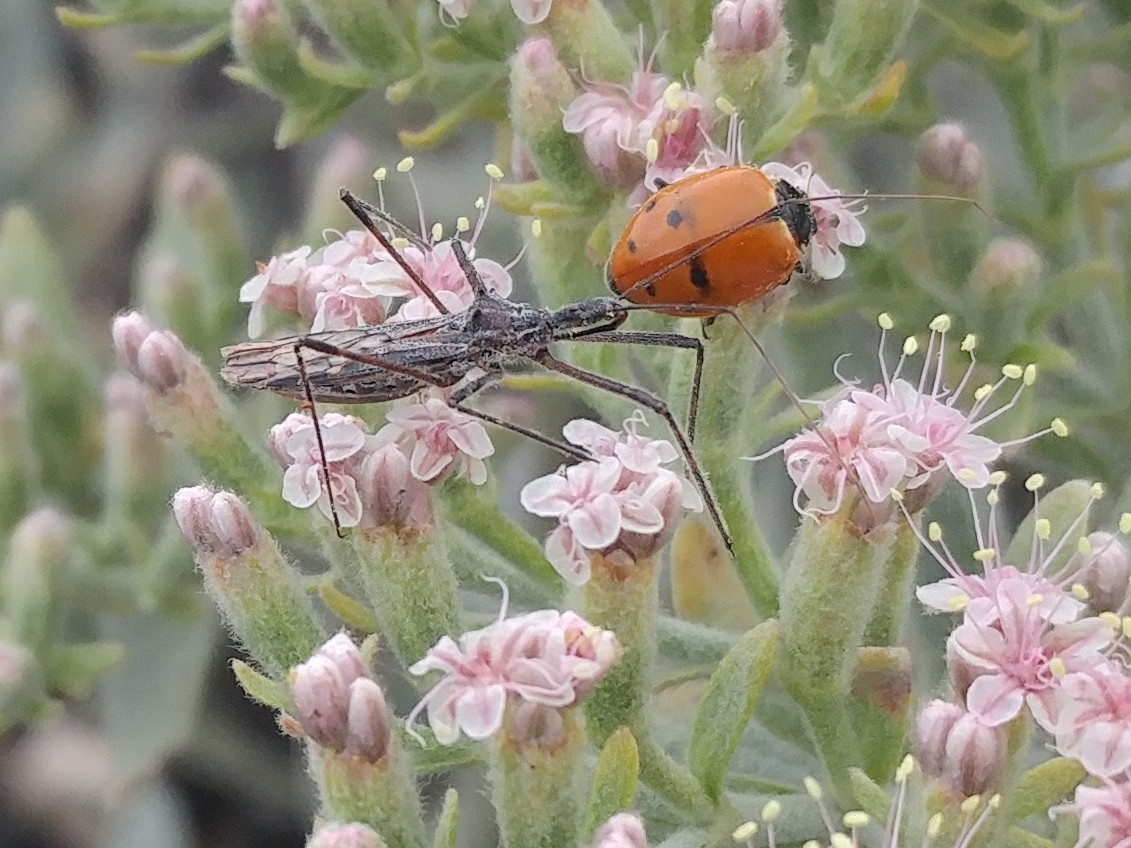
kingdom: Animalia
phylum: Arthropoda
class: Insecta
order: Hemiptera
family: Reduviidae
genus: Zelus
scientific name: Zelus tetracanthus
